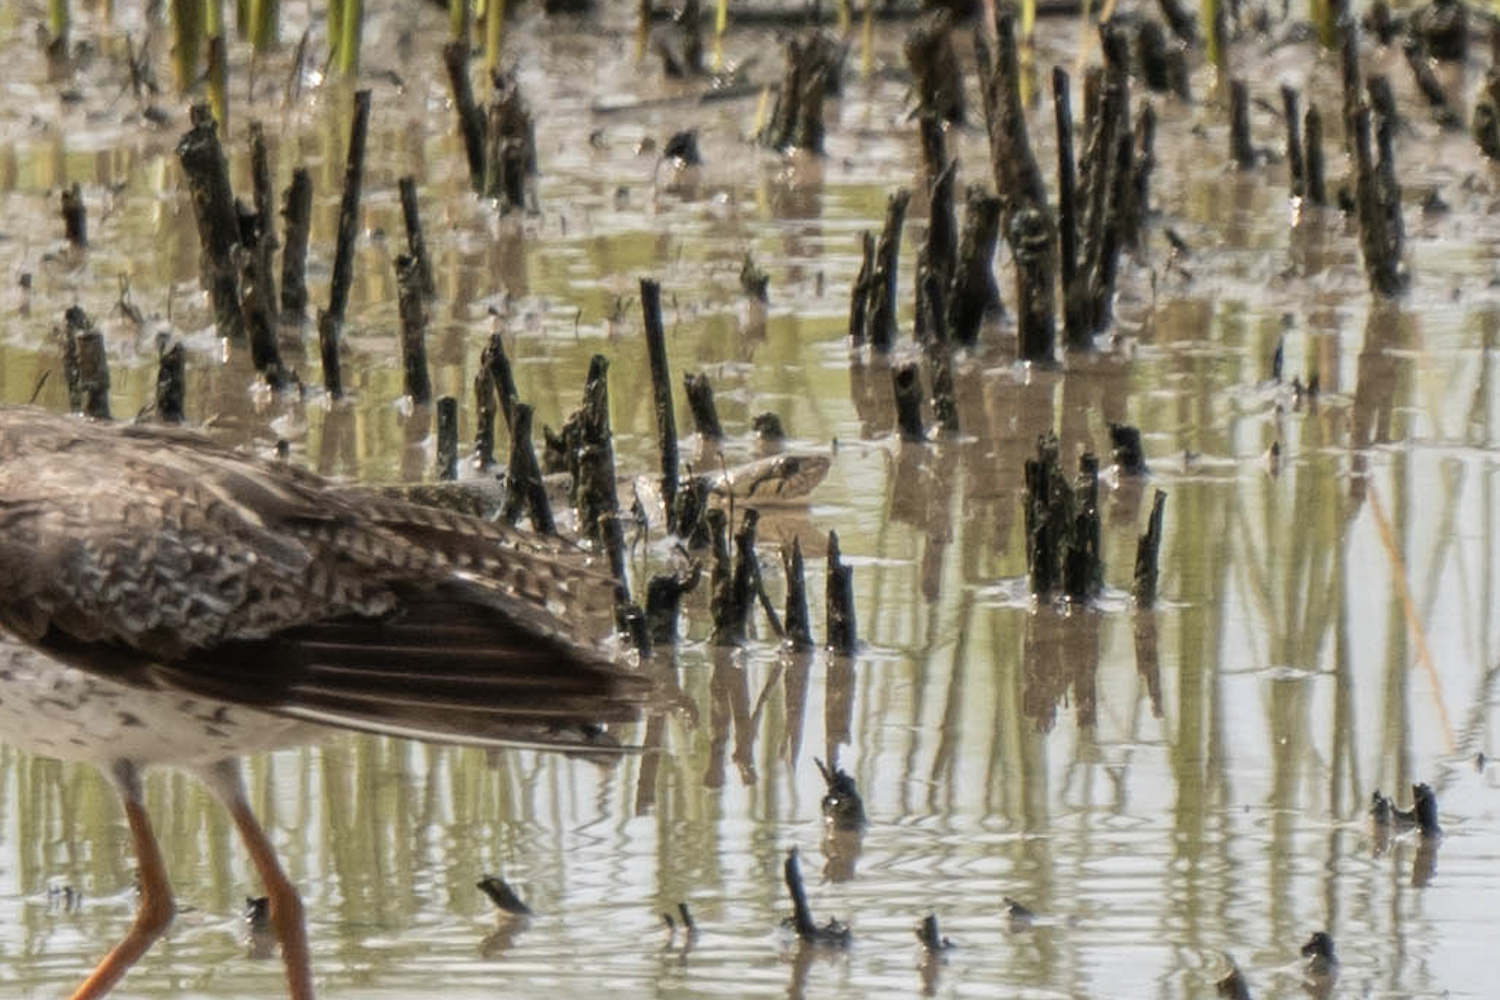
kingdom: Animalia
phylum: Chordata
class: Squamata
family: Colubridae
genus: Fowlea
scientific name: Fowlea flavipunctatus
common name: Yellow-spotted keelback
